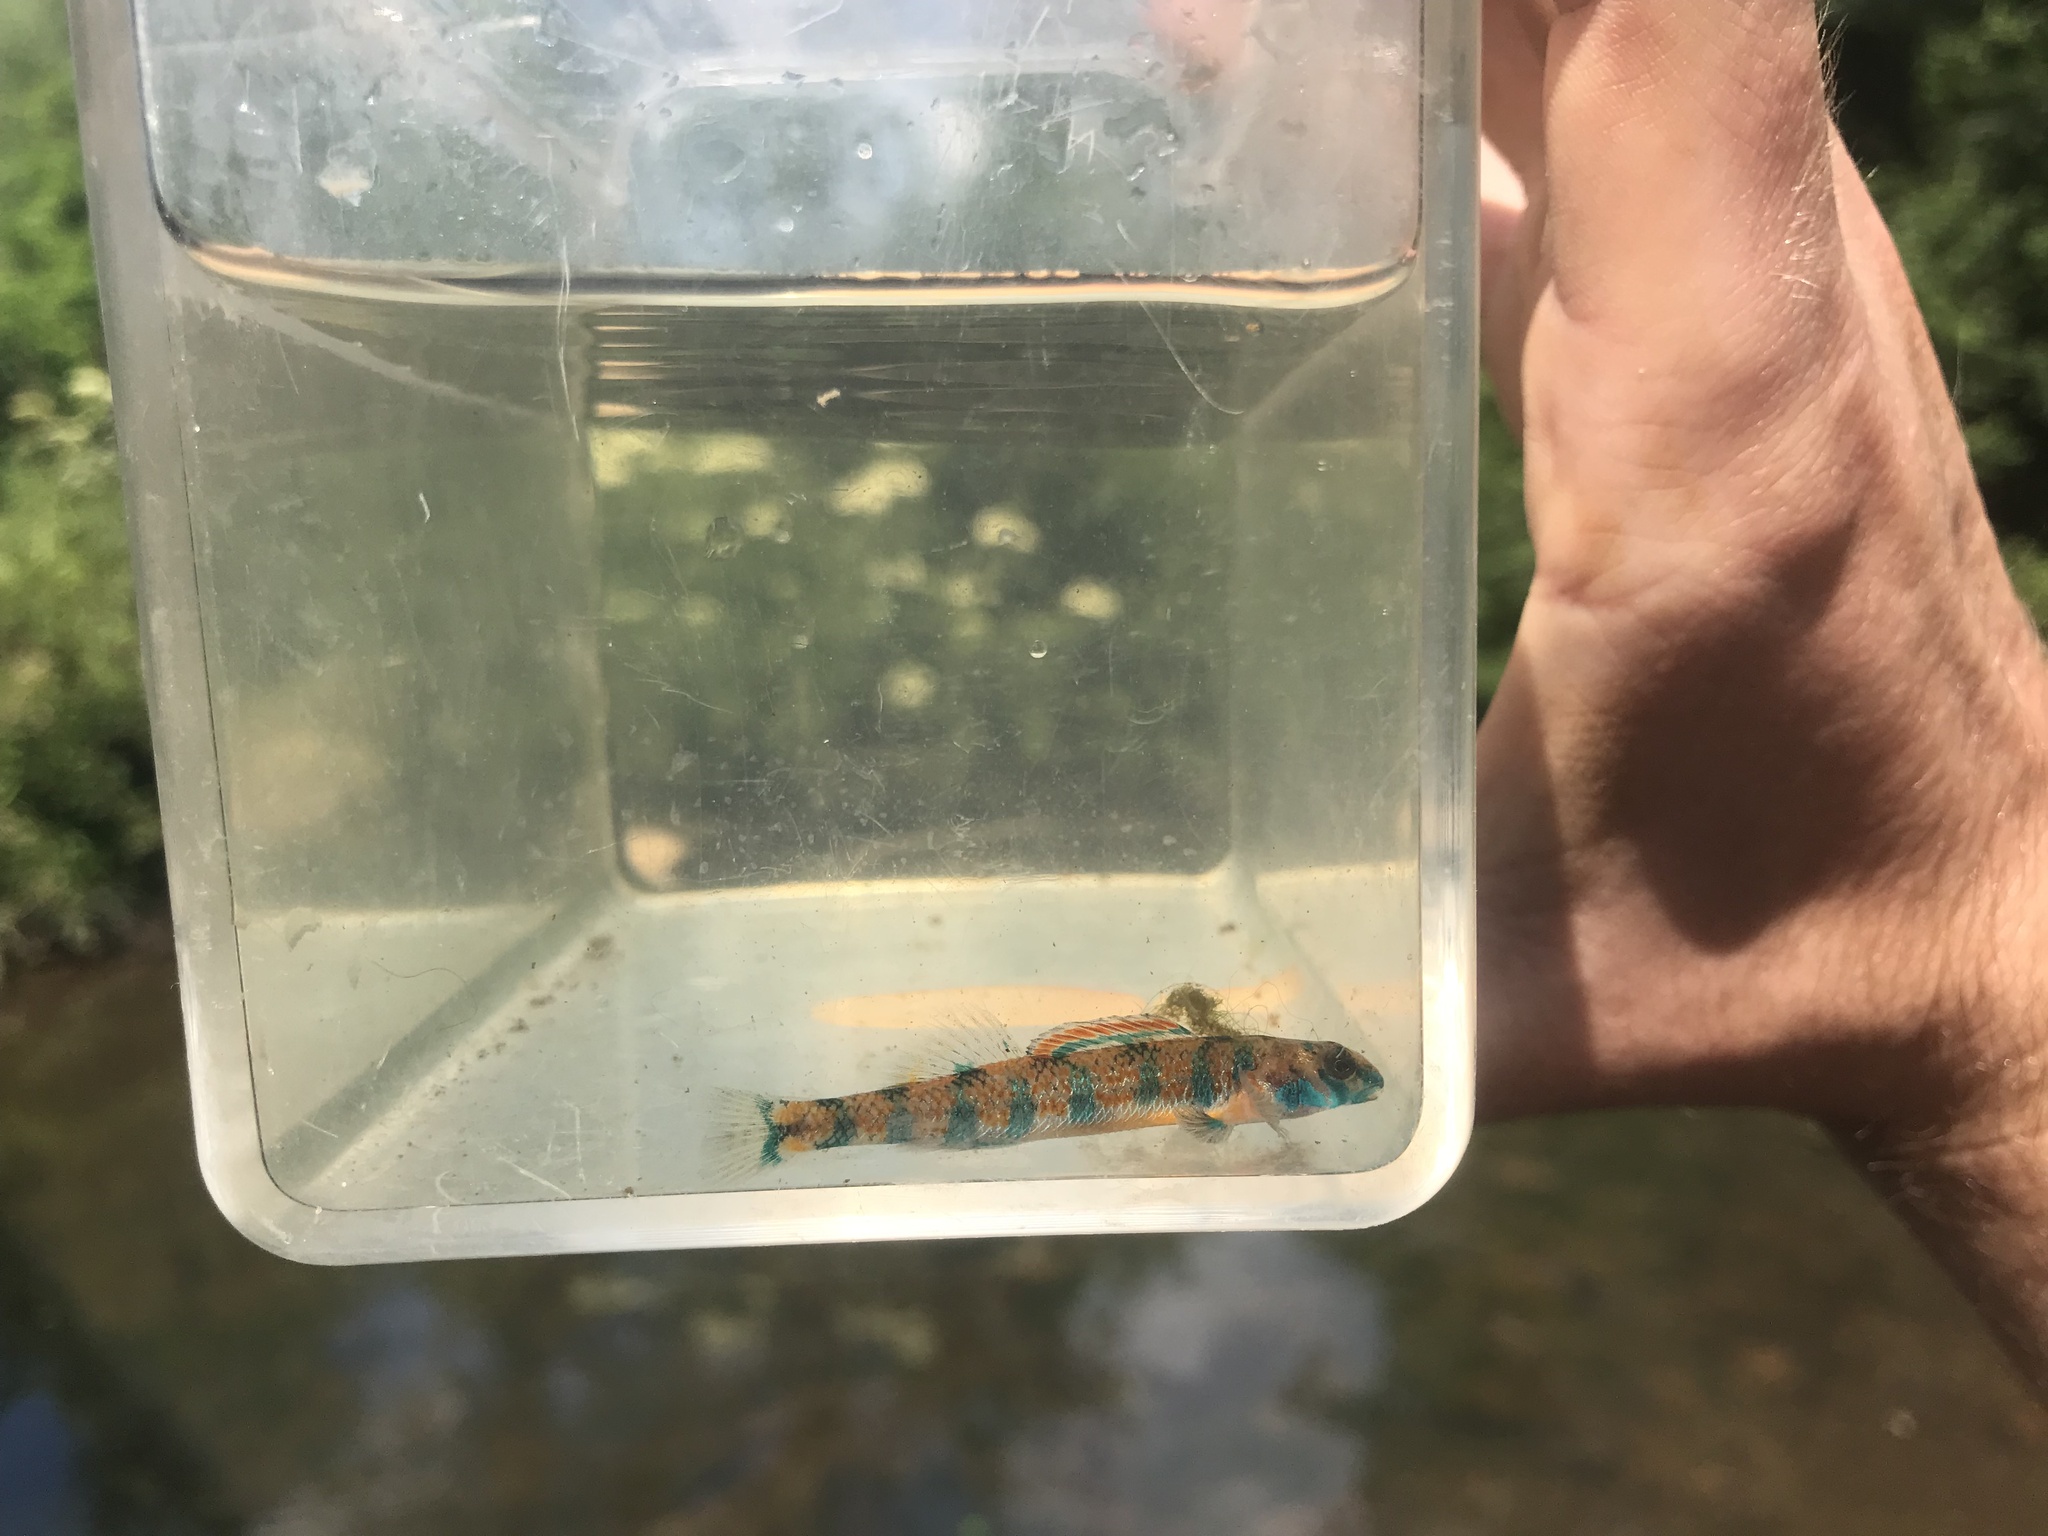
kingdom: Animalia
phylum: Chordata
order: Perciformes
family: Percidae
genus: Etheostoma
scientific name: Etheostoma stigmaeum
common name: Speckled darter
